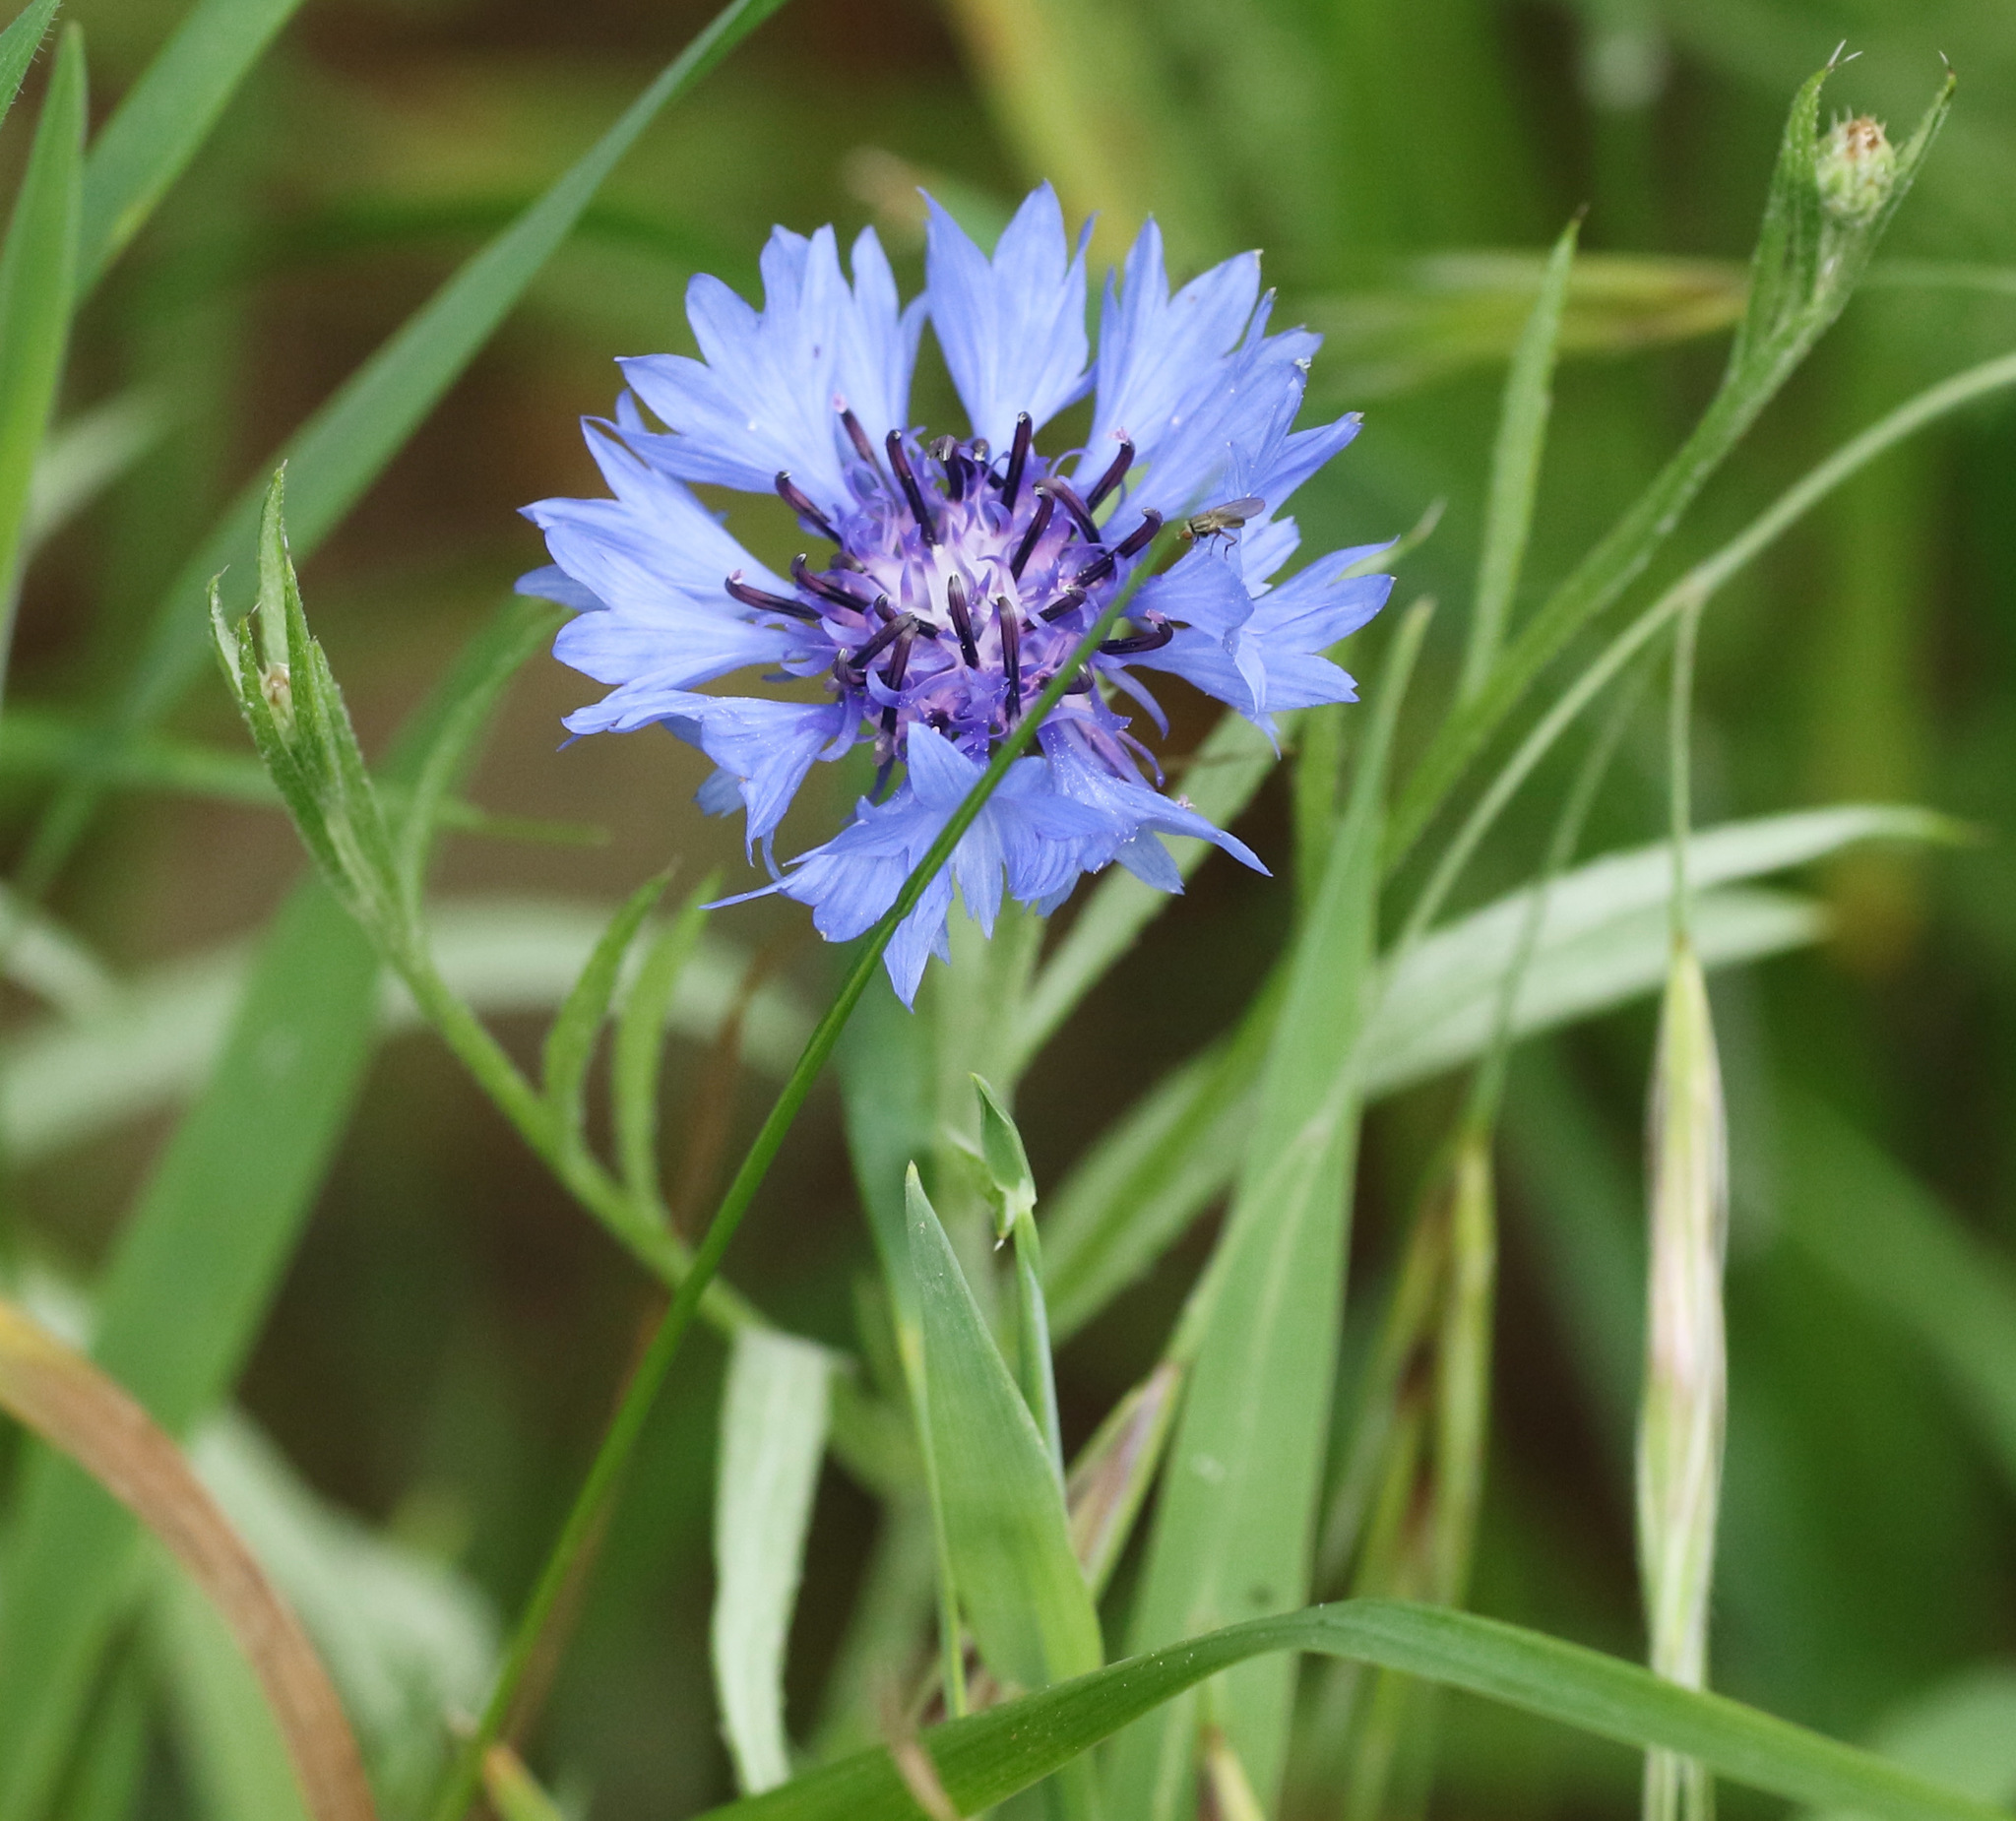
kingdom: Plantae
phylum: Tracheophyta
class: Magnoliopsida
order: Asterales
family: Asteraceae
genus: Centaurea
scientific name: Centaurea cyanus
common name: Cornflower
